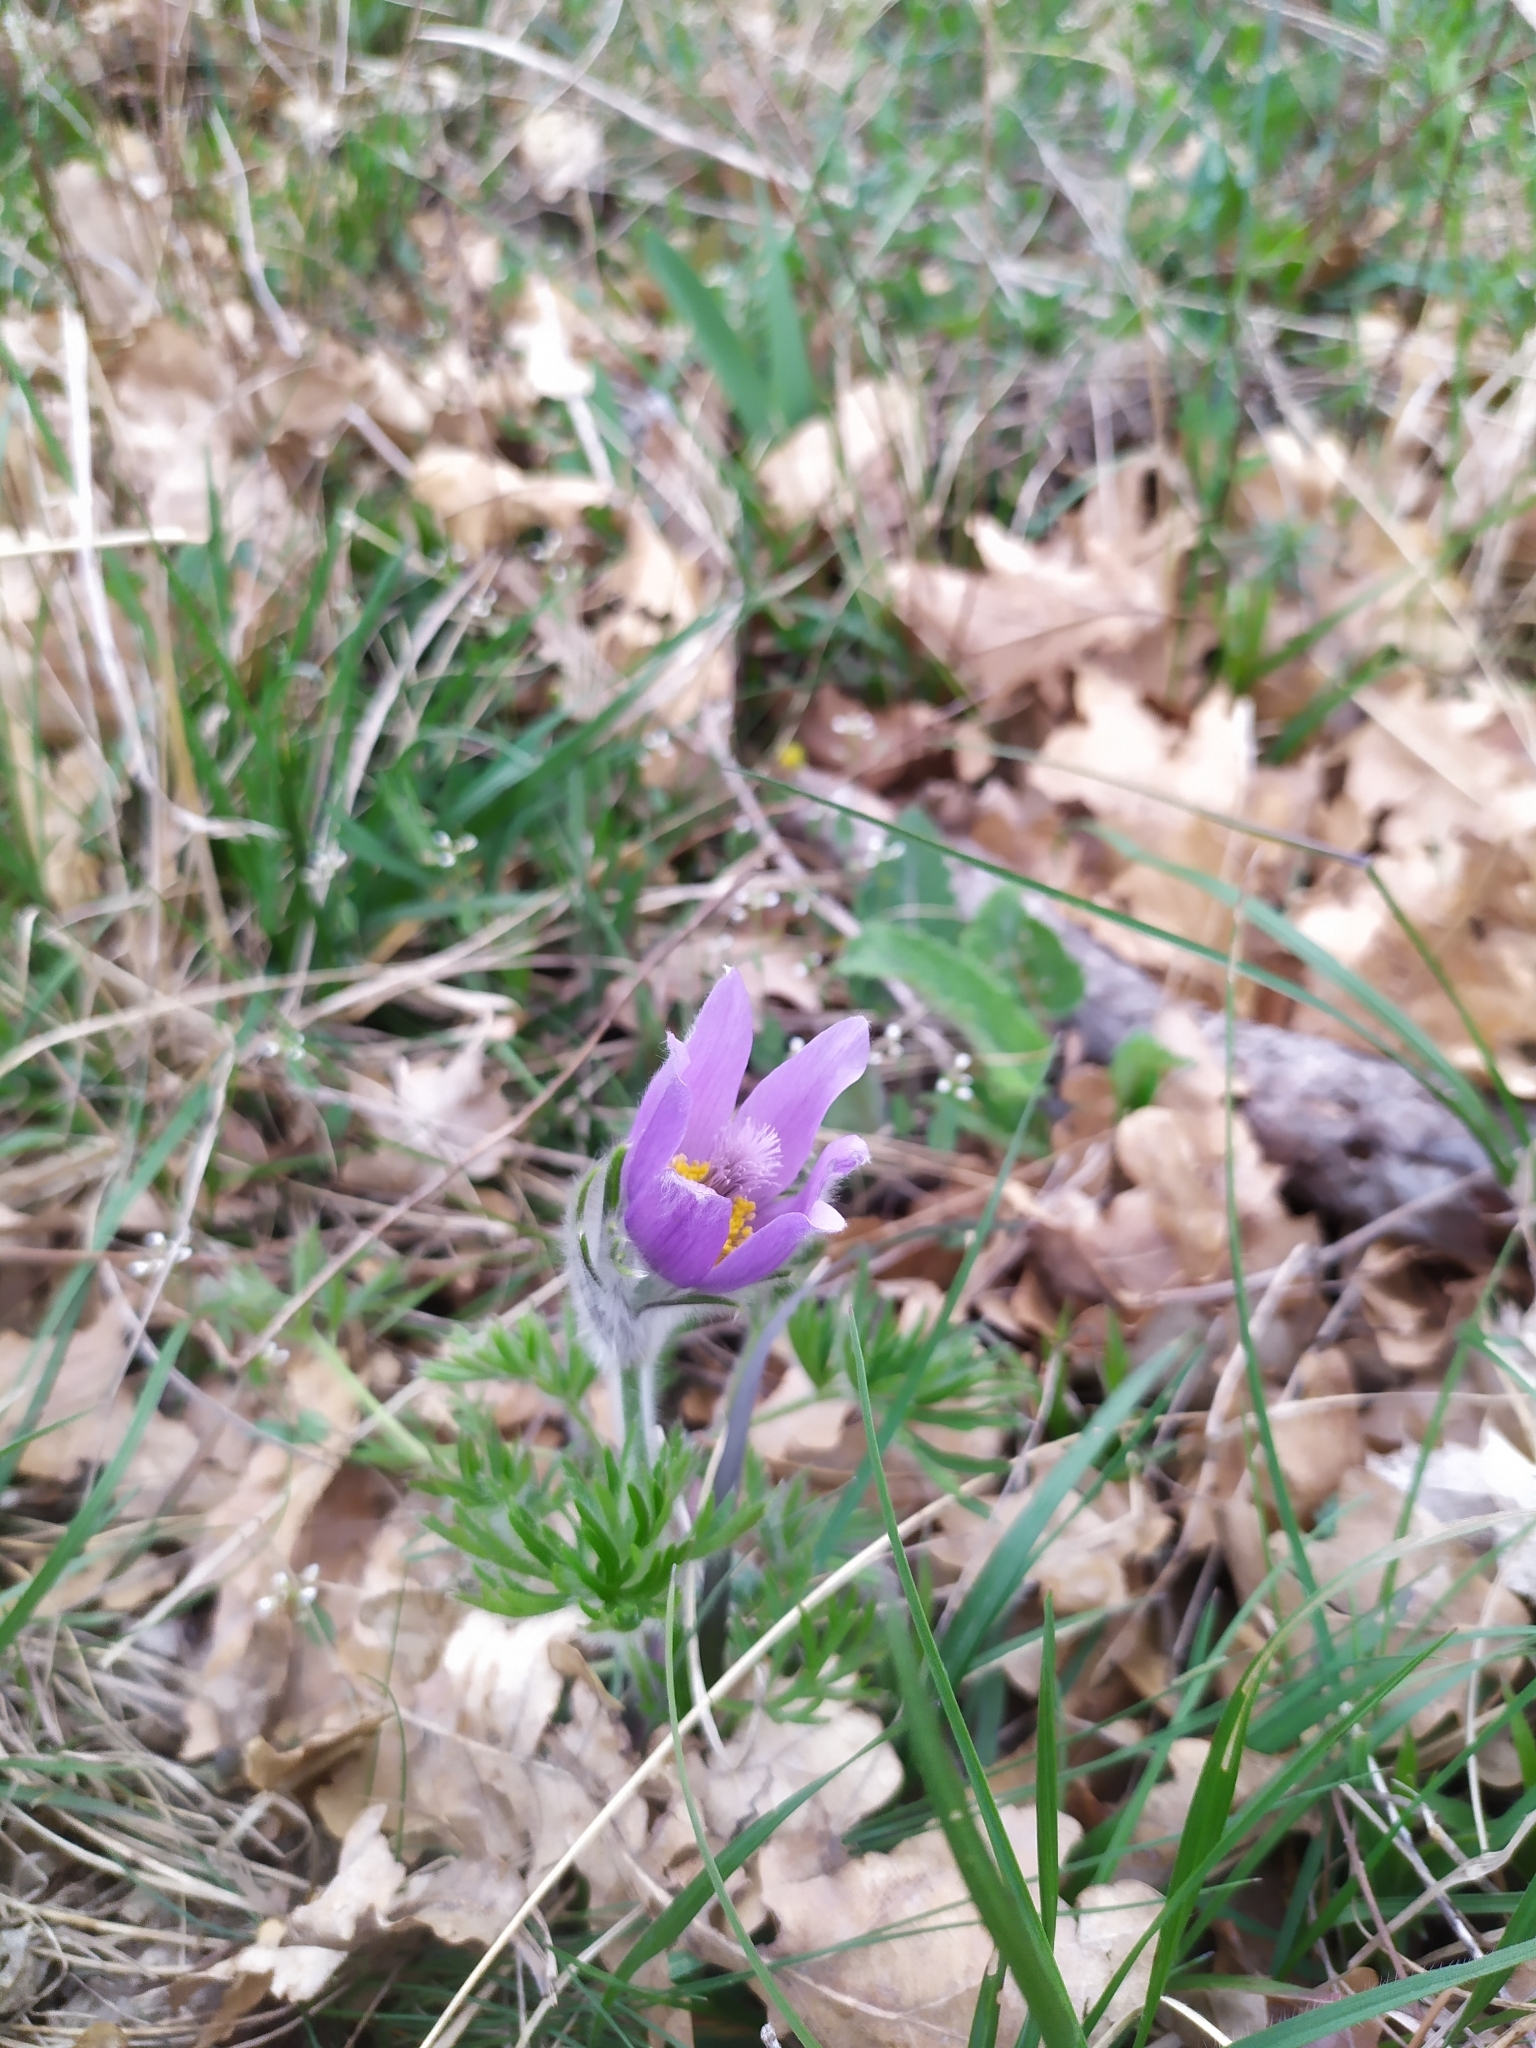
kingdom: Plantae
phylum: Tracheophyta
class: Magnoliopsida
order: Ranunculales
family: Ranunculaceae
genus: Pulsatilla
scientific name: Pulsatilla grandis
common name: Greater pasque flower
